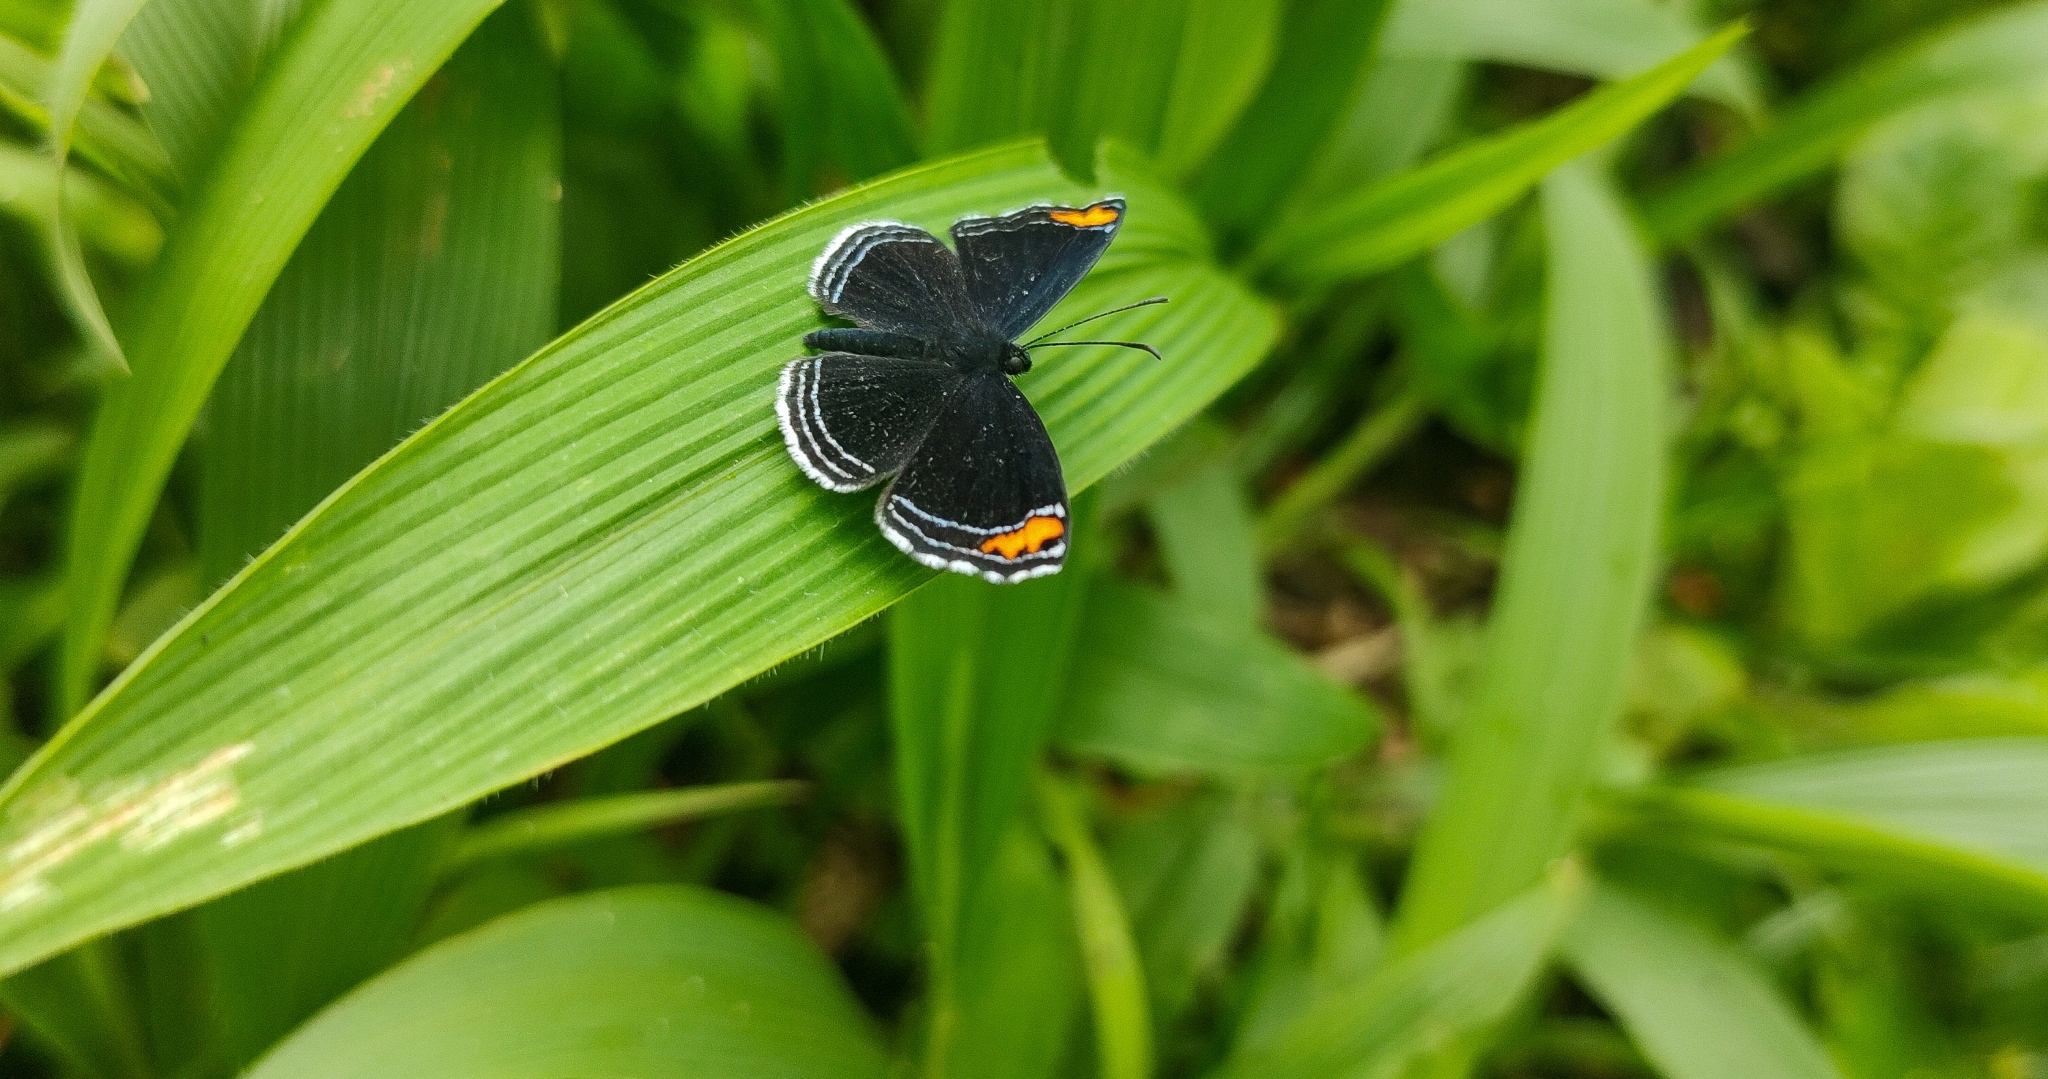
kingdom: Animalia
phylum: Arthropoda
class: Insecta
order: Lepidoptera
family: Riodinidae
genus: Nelone
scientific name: Nelone cadmeis
